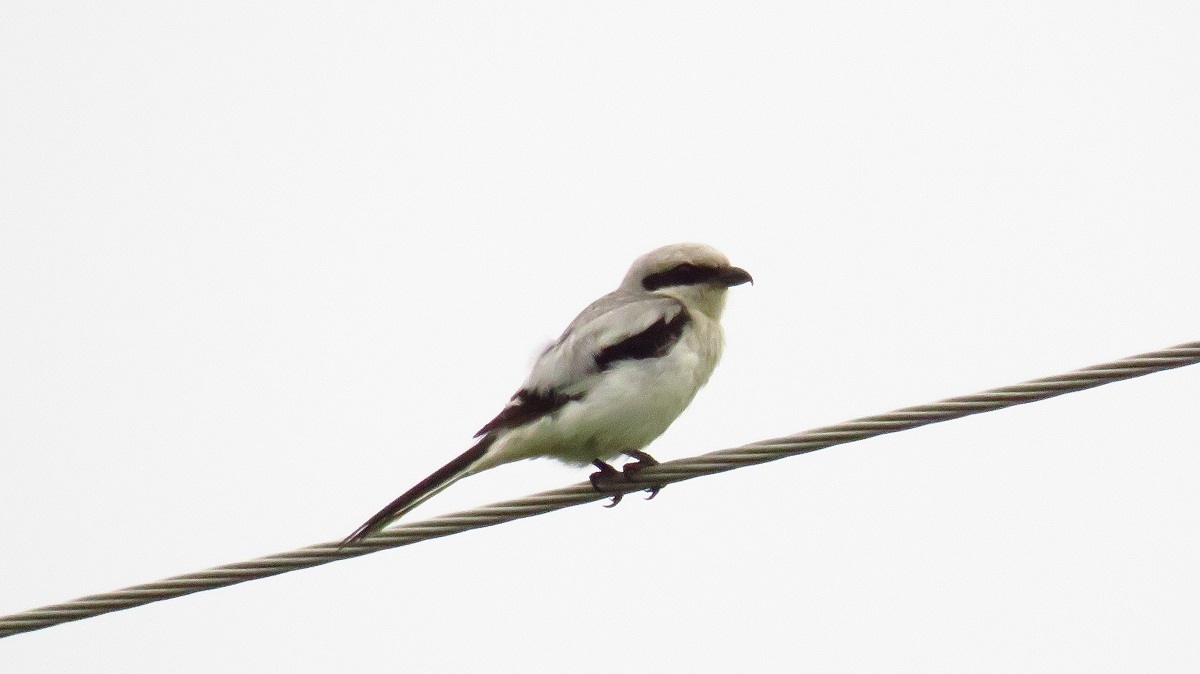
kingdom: Animalia
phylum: Chordata
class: Aves
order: Passeriformes
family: Laniidae
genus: Lanius
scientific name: Lanius excubitor
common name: Great grey shrike
